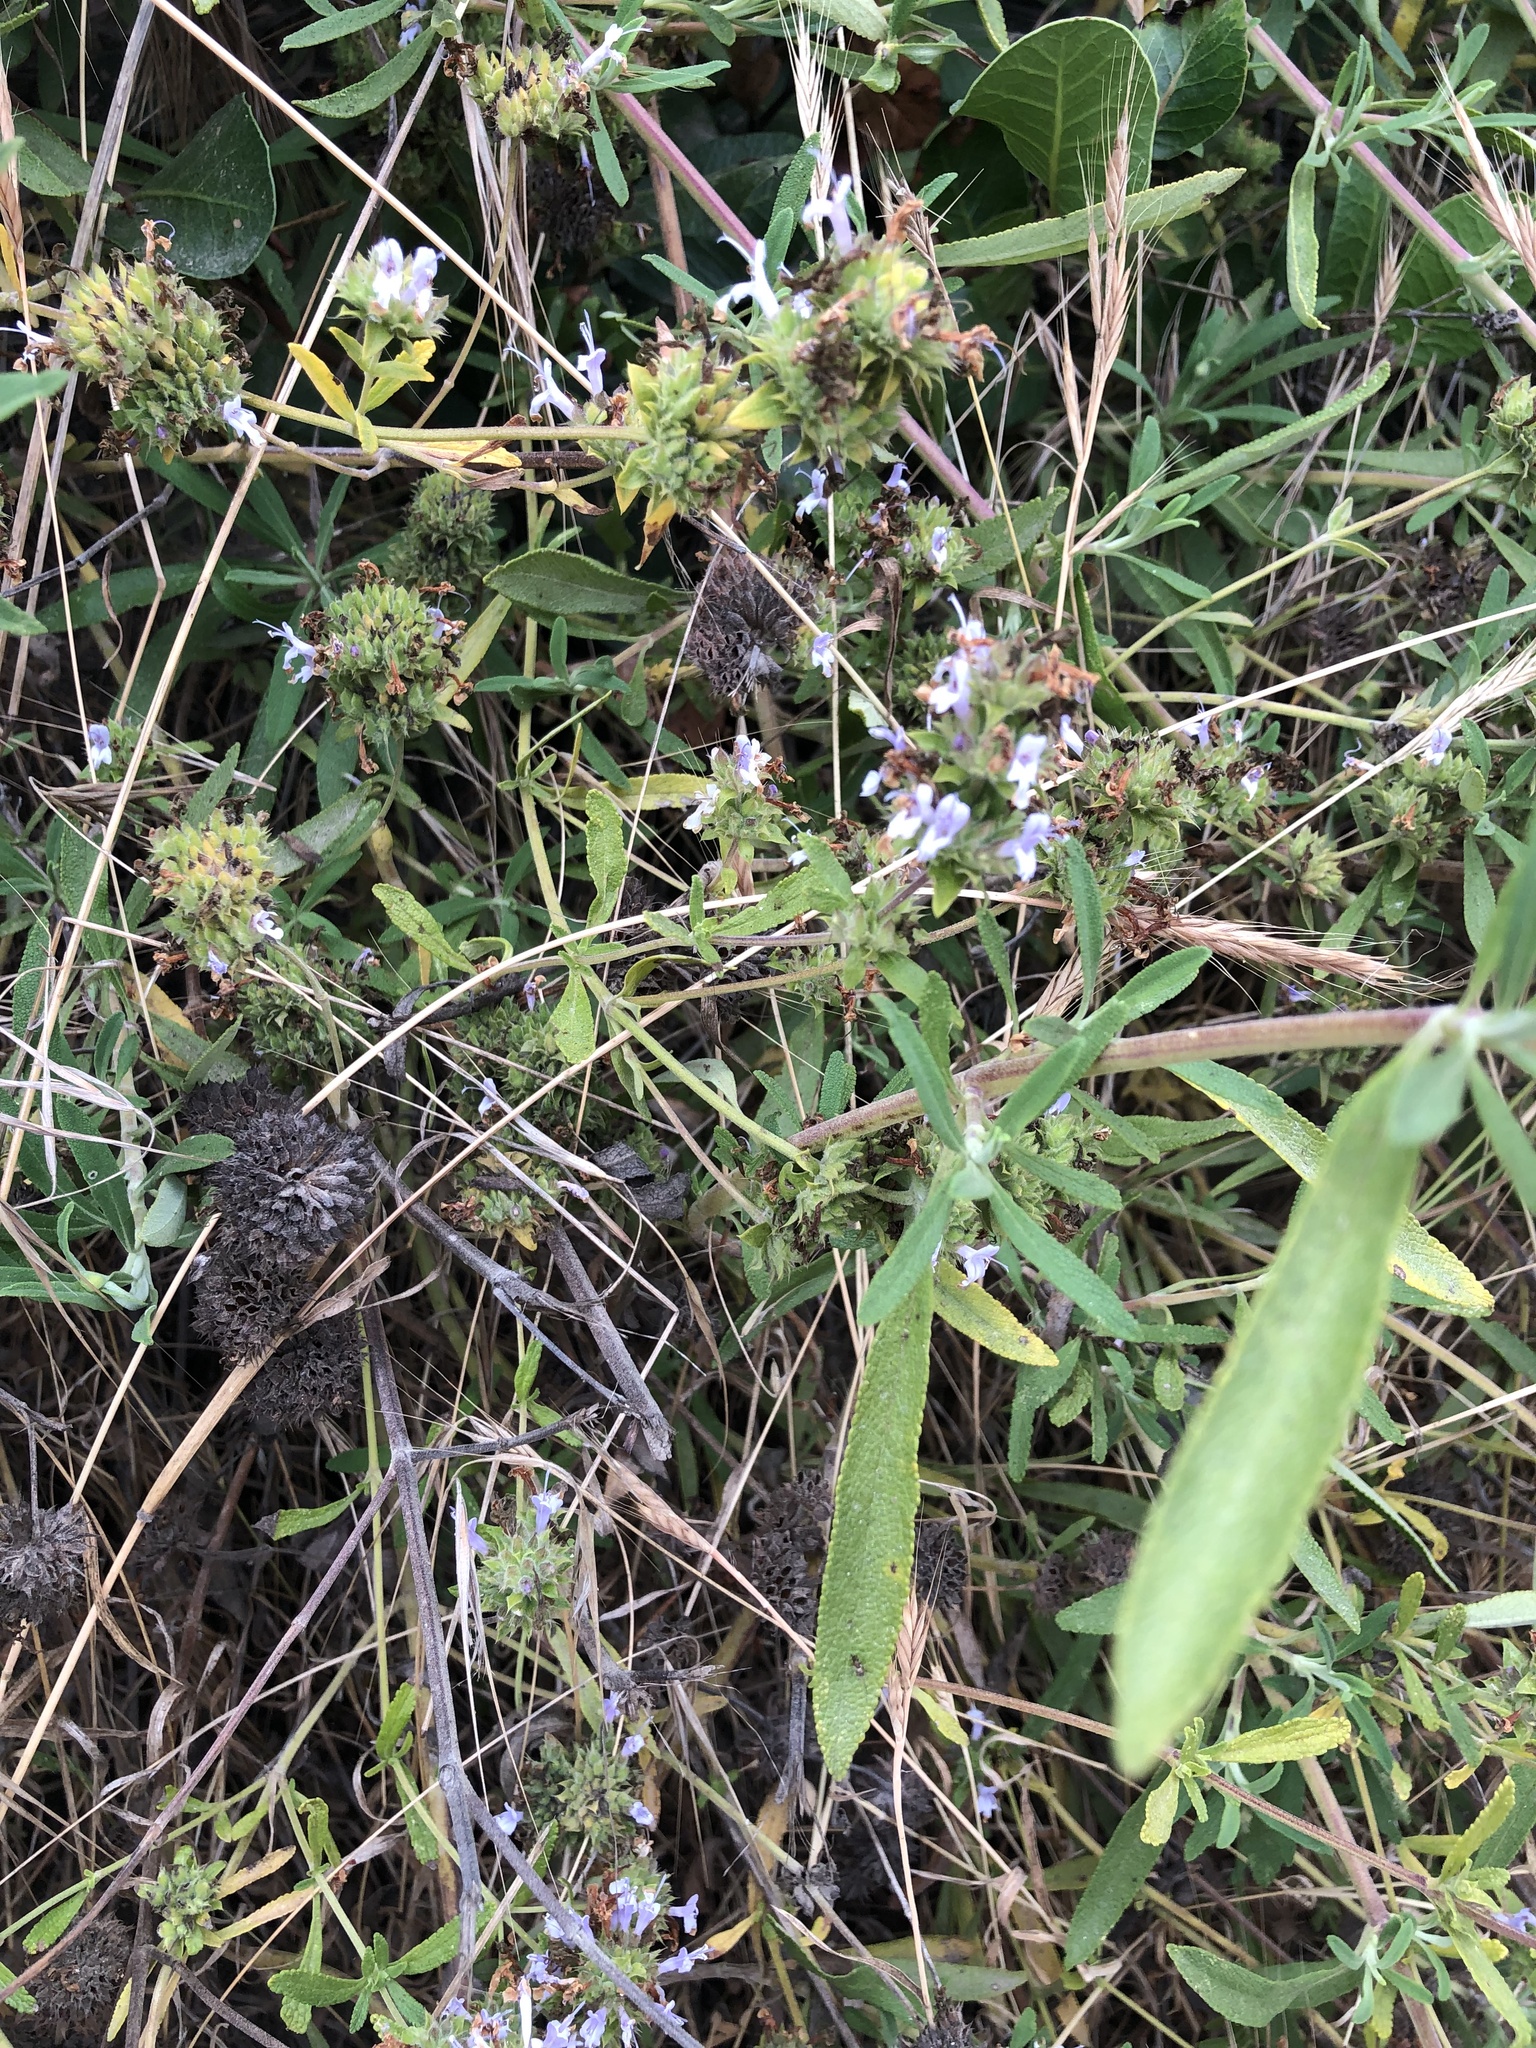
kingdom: Plantae
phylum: Tracheophyta
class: Magnoliopsida
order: Lamiales
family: Lamiaceae
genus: Salvia
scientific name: Salvia mellifera
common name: Black sage
